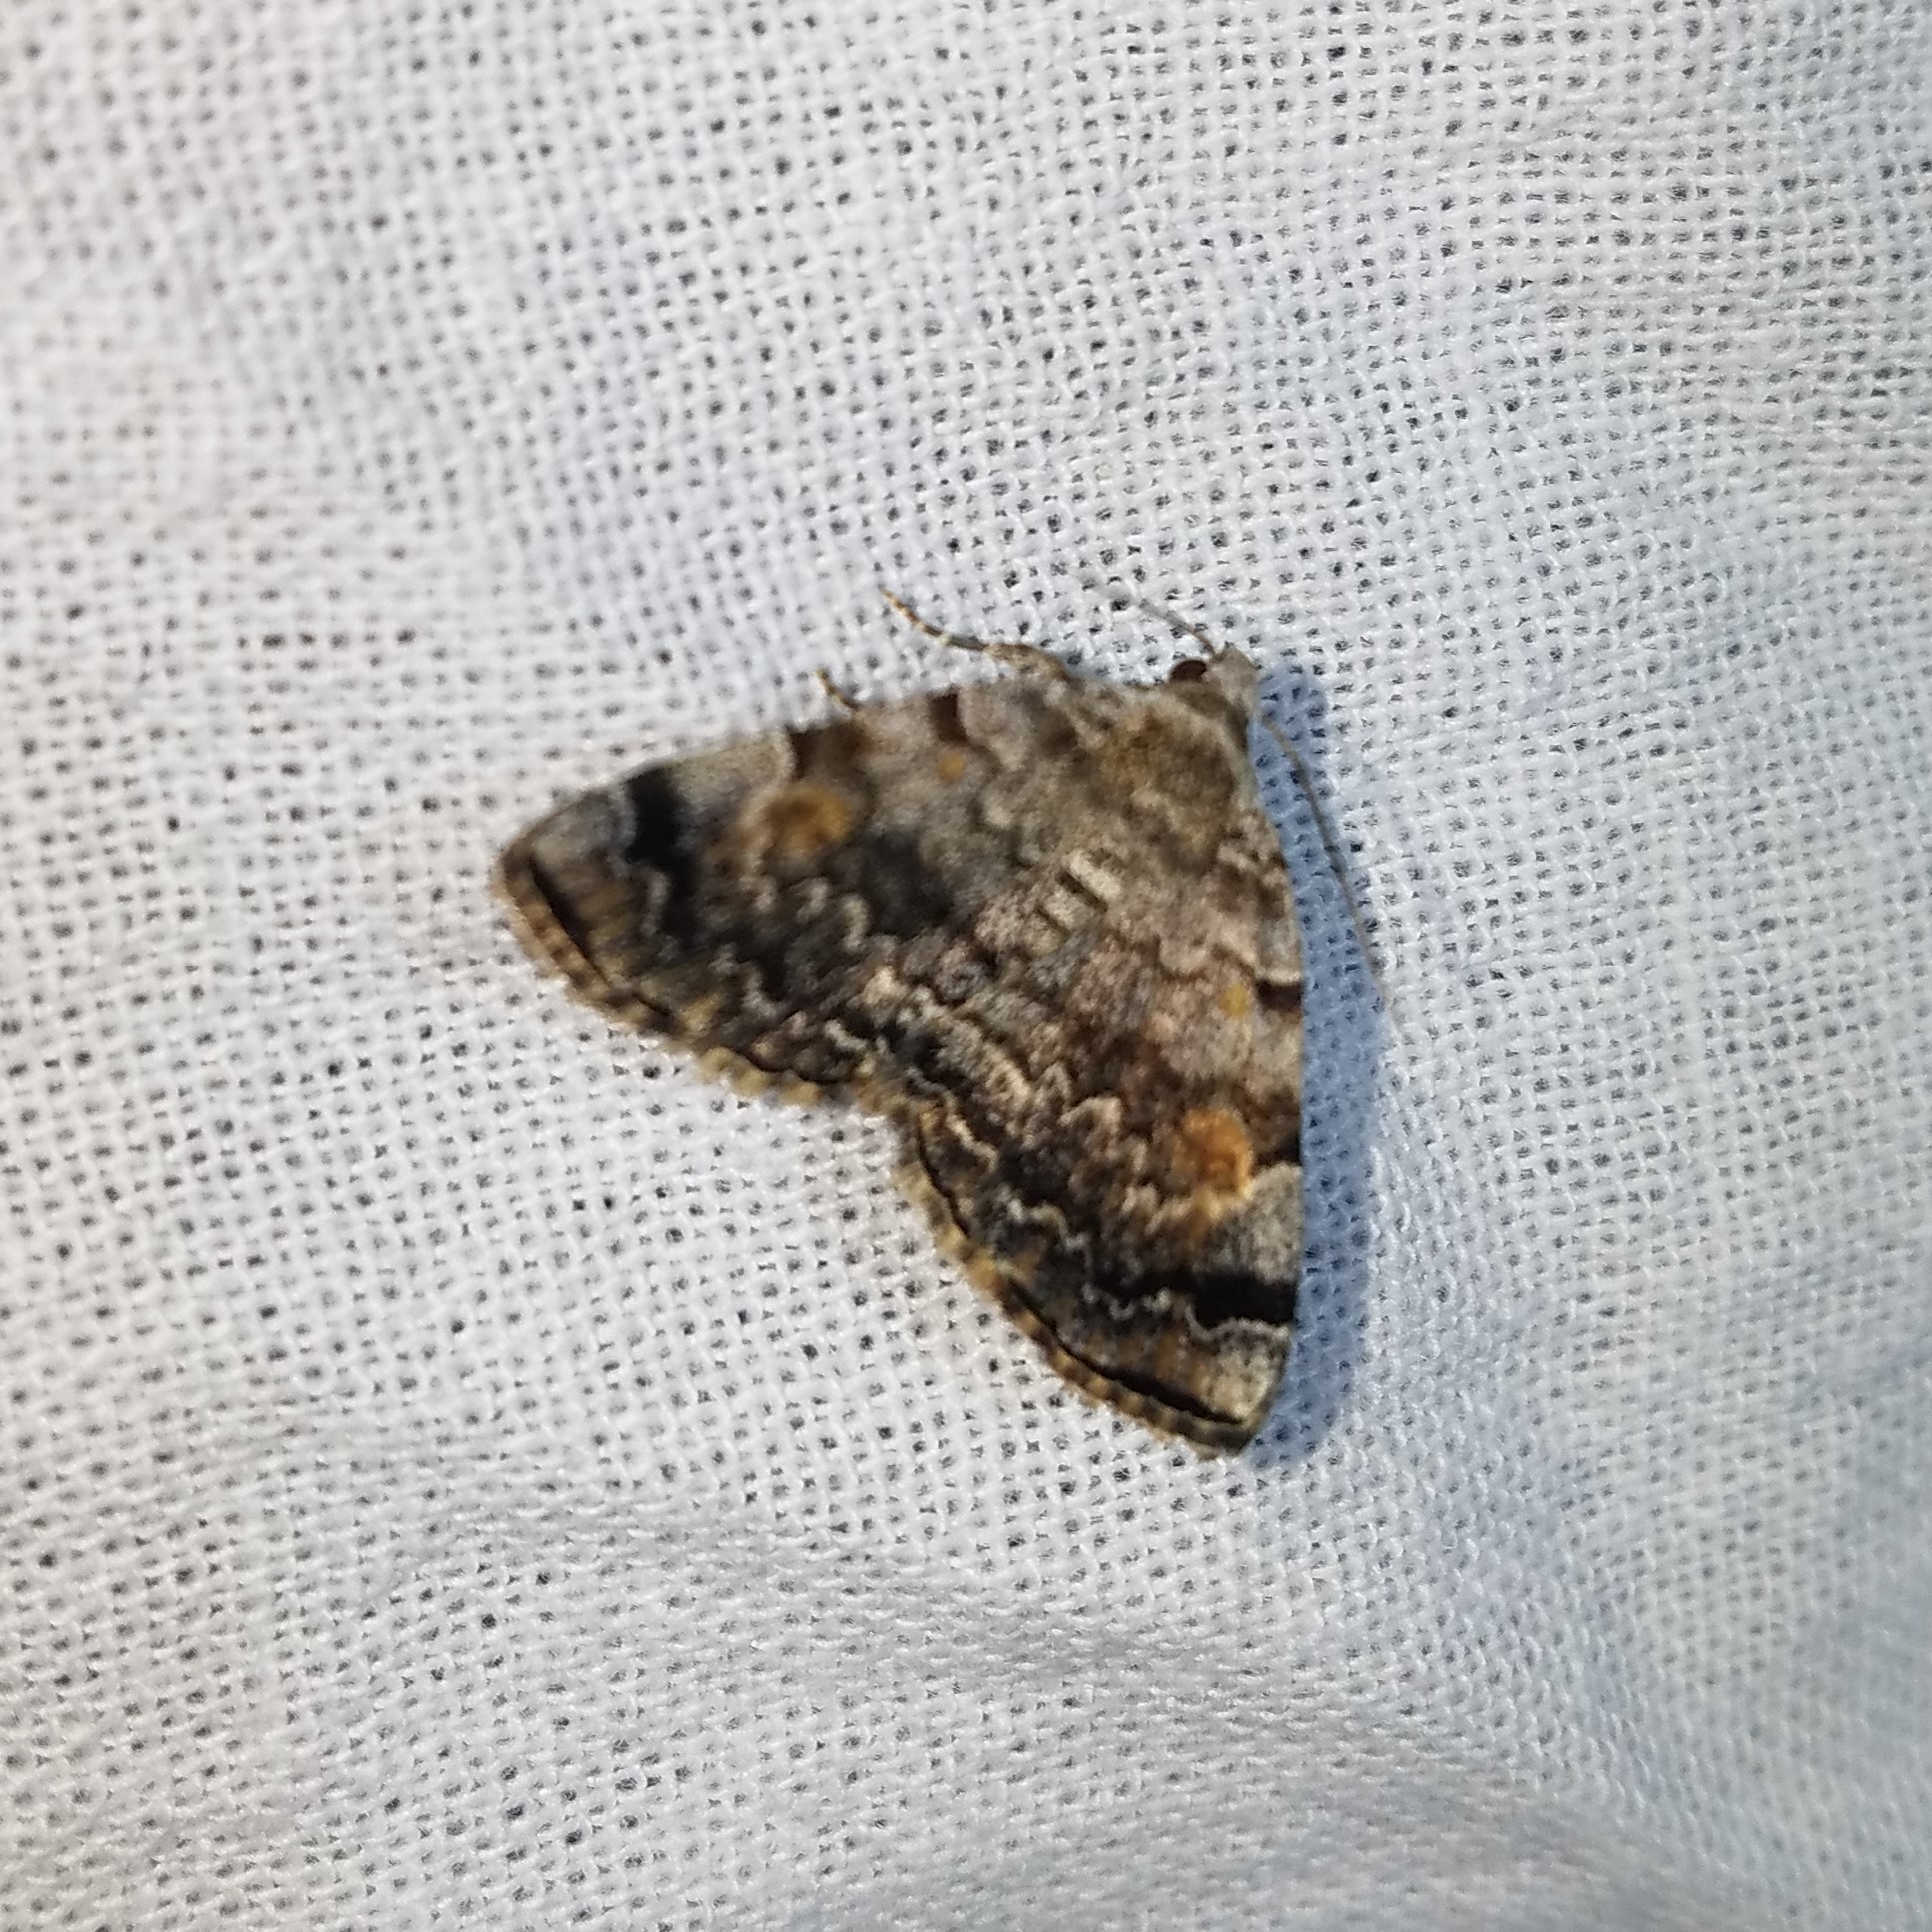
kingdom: Animalia
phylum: Arthropoda
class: Insecta
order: Lepidoptera
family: Erebidae
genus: Idia
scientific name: Idia americalis
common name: American idia moth
